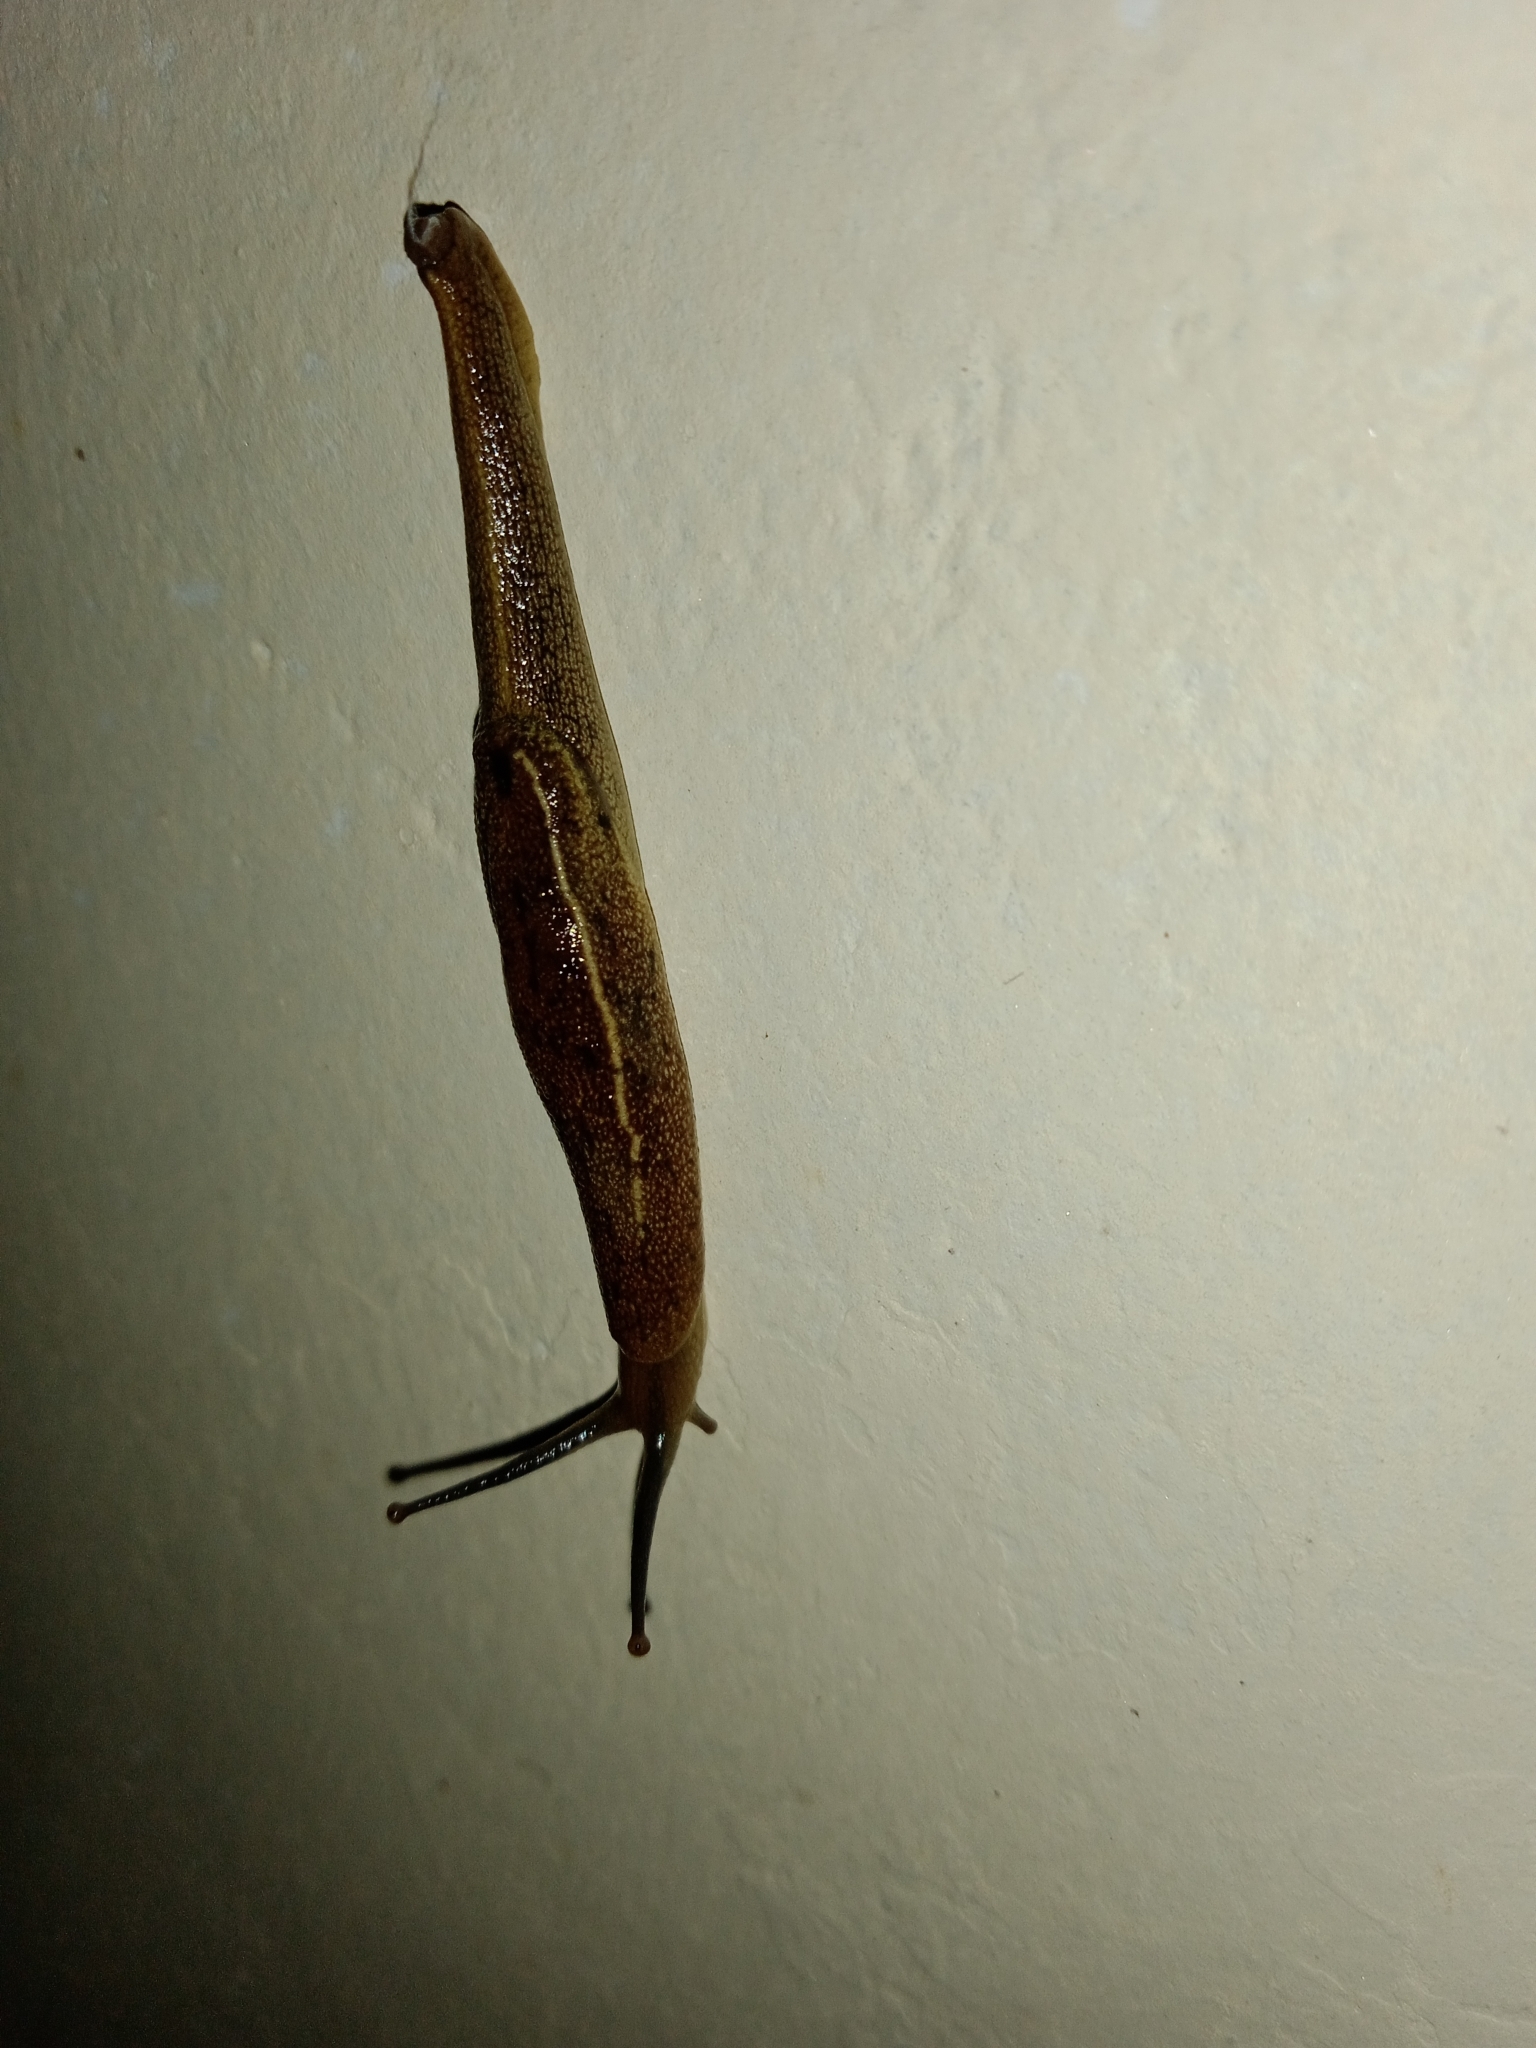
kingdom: Animalia
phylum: Mollusca
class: Gastropoda
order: Stylommatophora
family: Ariophantidae
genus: Mariaella
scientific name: Mariaella dussumieri
